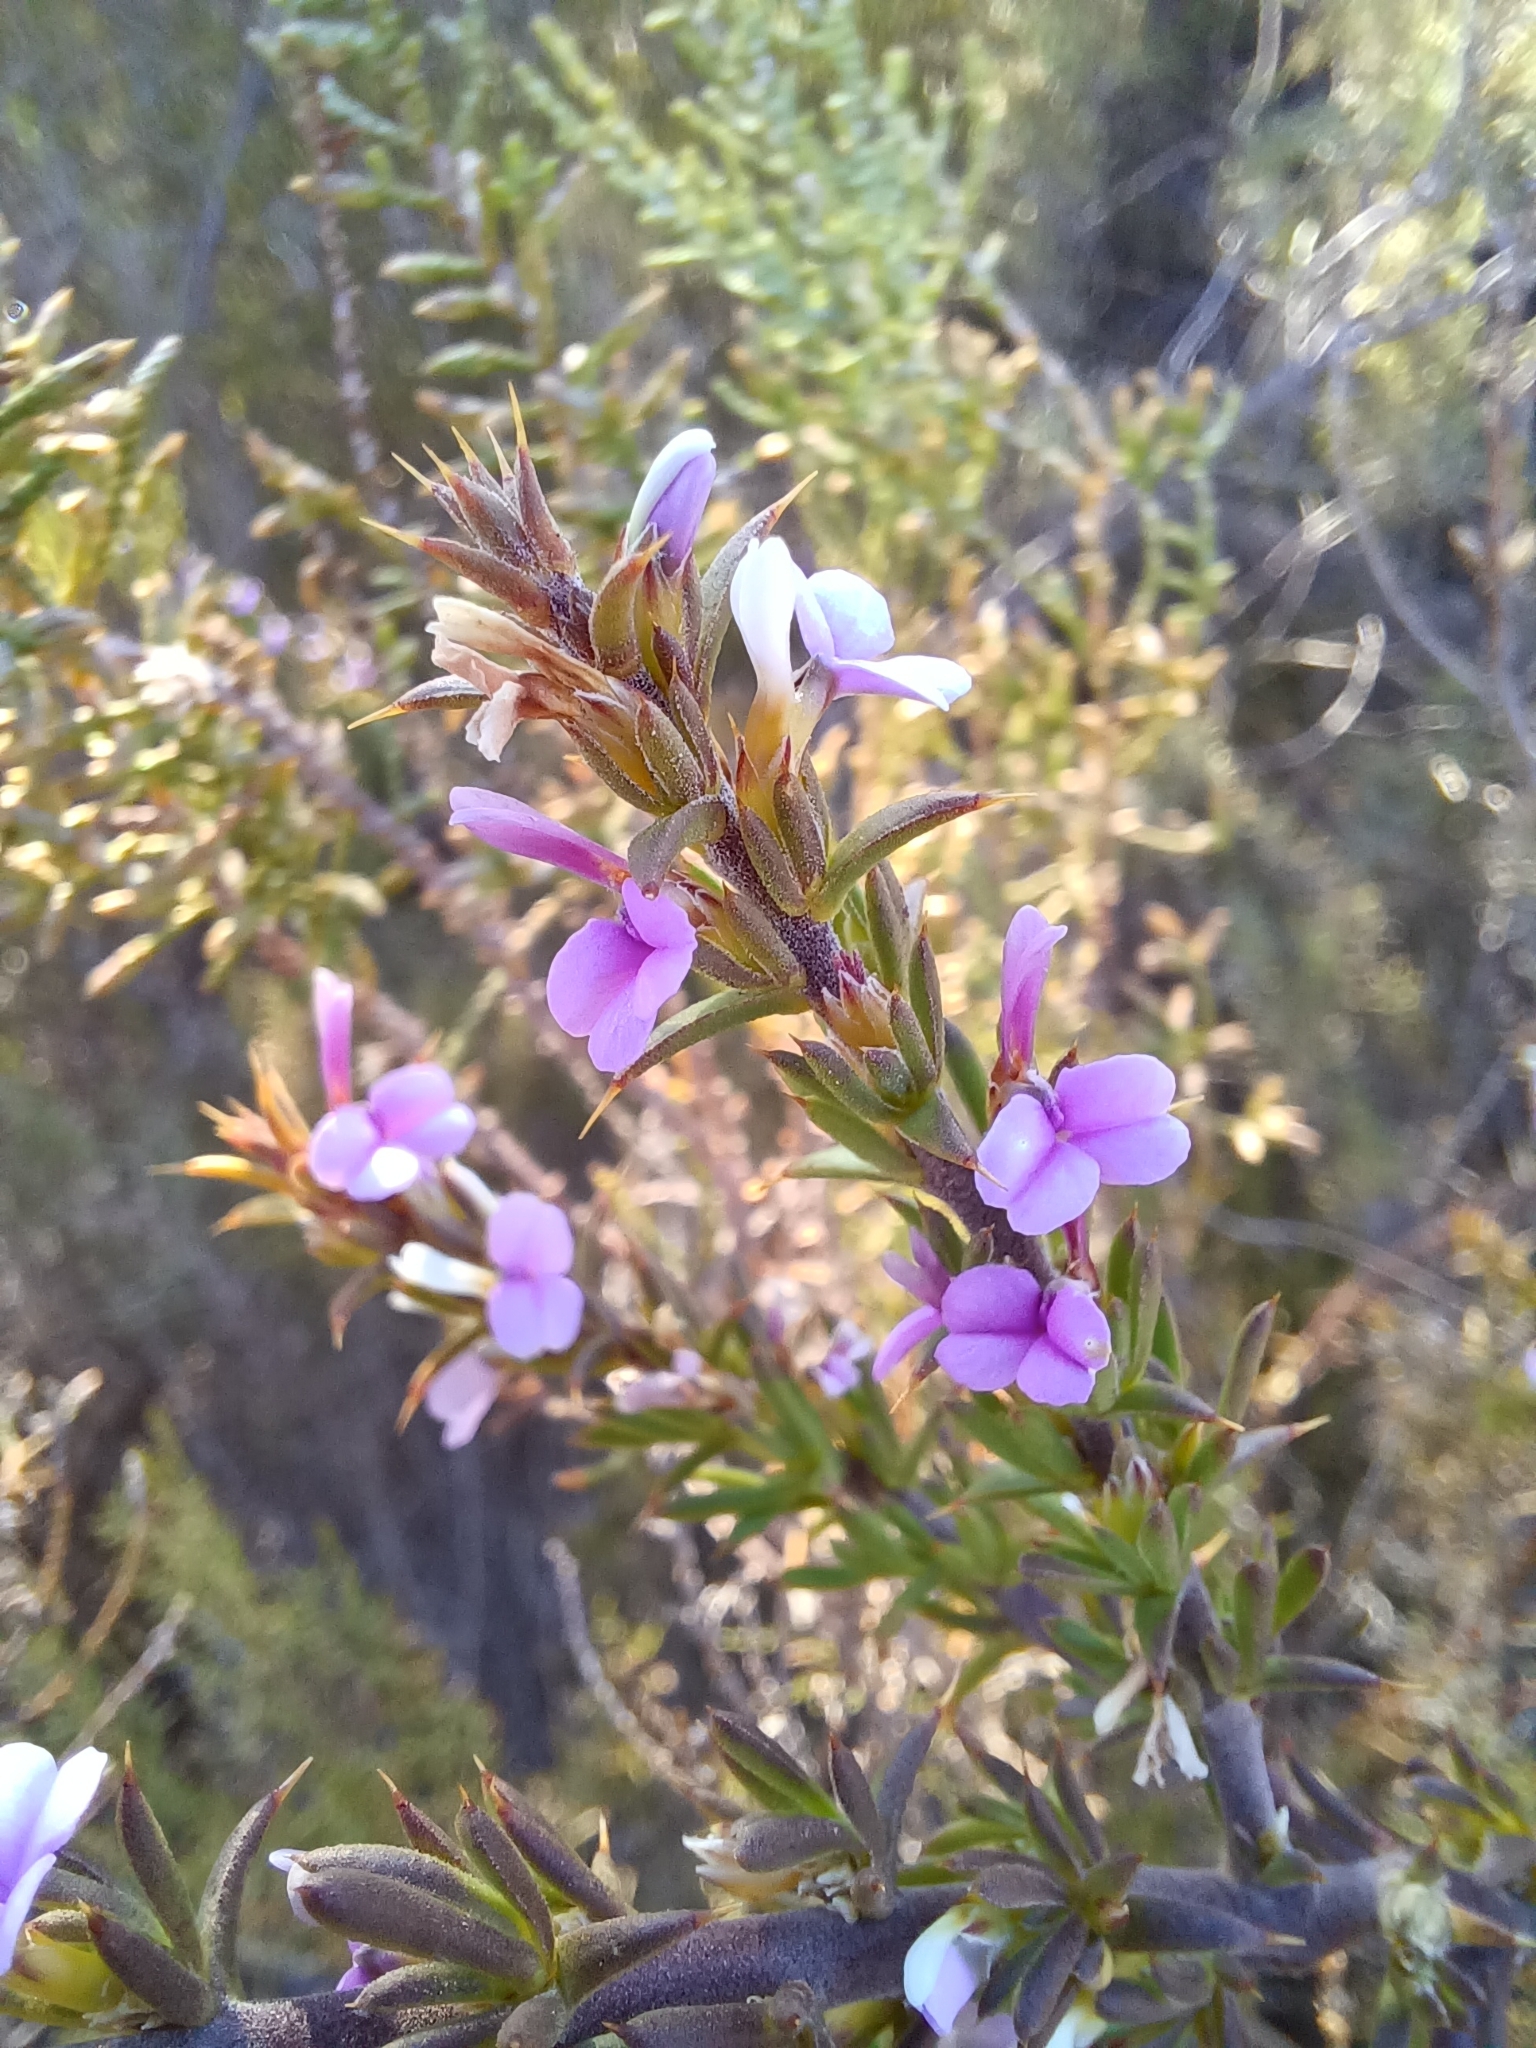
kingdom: Plantae
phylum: Tracheophyta
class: Magnoliopsida
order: Fabales
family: Polygalaceae
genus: Muraltia
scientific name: Muraltia heisteria
